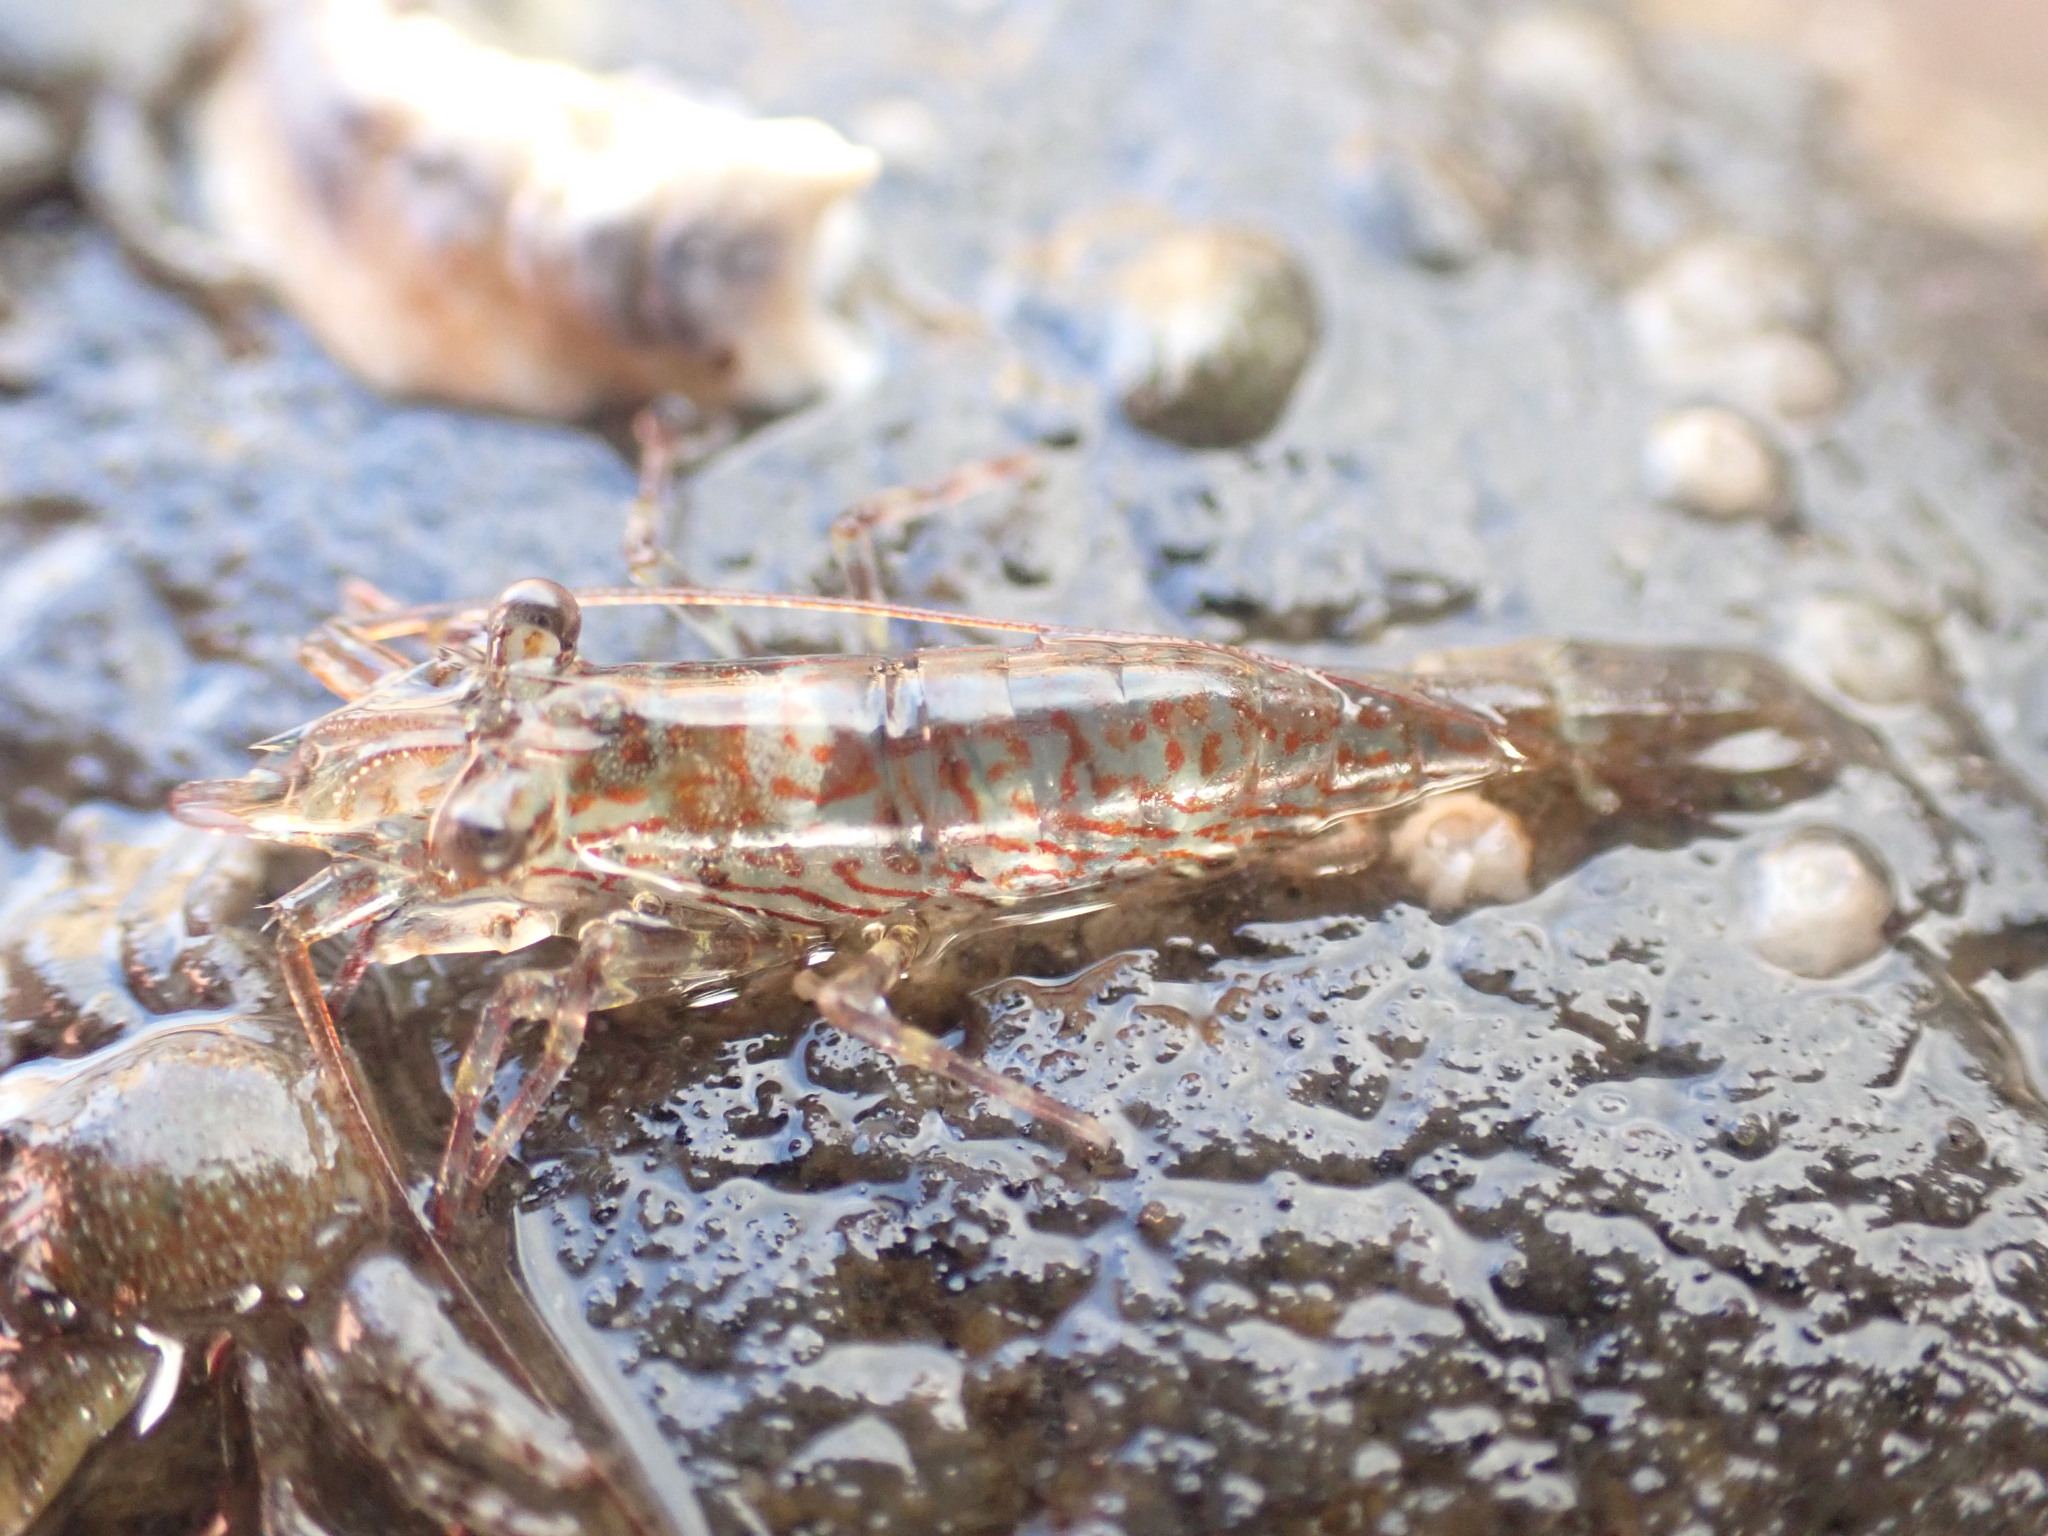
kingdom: Animalia
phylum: Arthropoda
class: Malacostraca
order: Decapoda
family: Hippolytidae
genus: Alope
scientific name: Alope spinifrons
